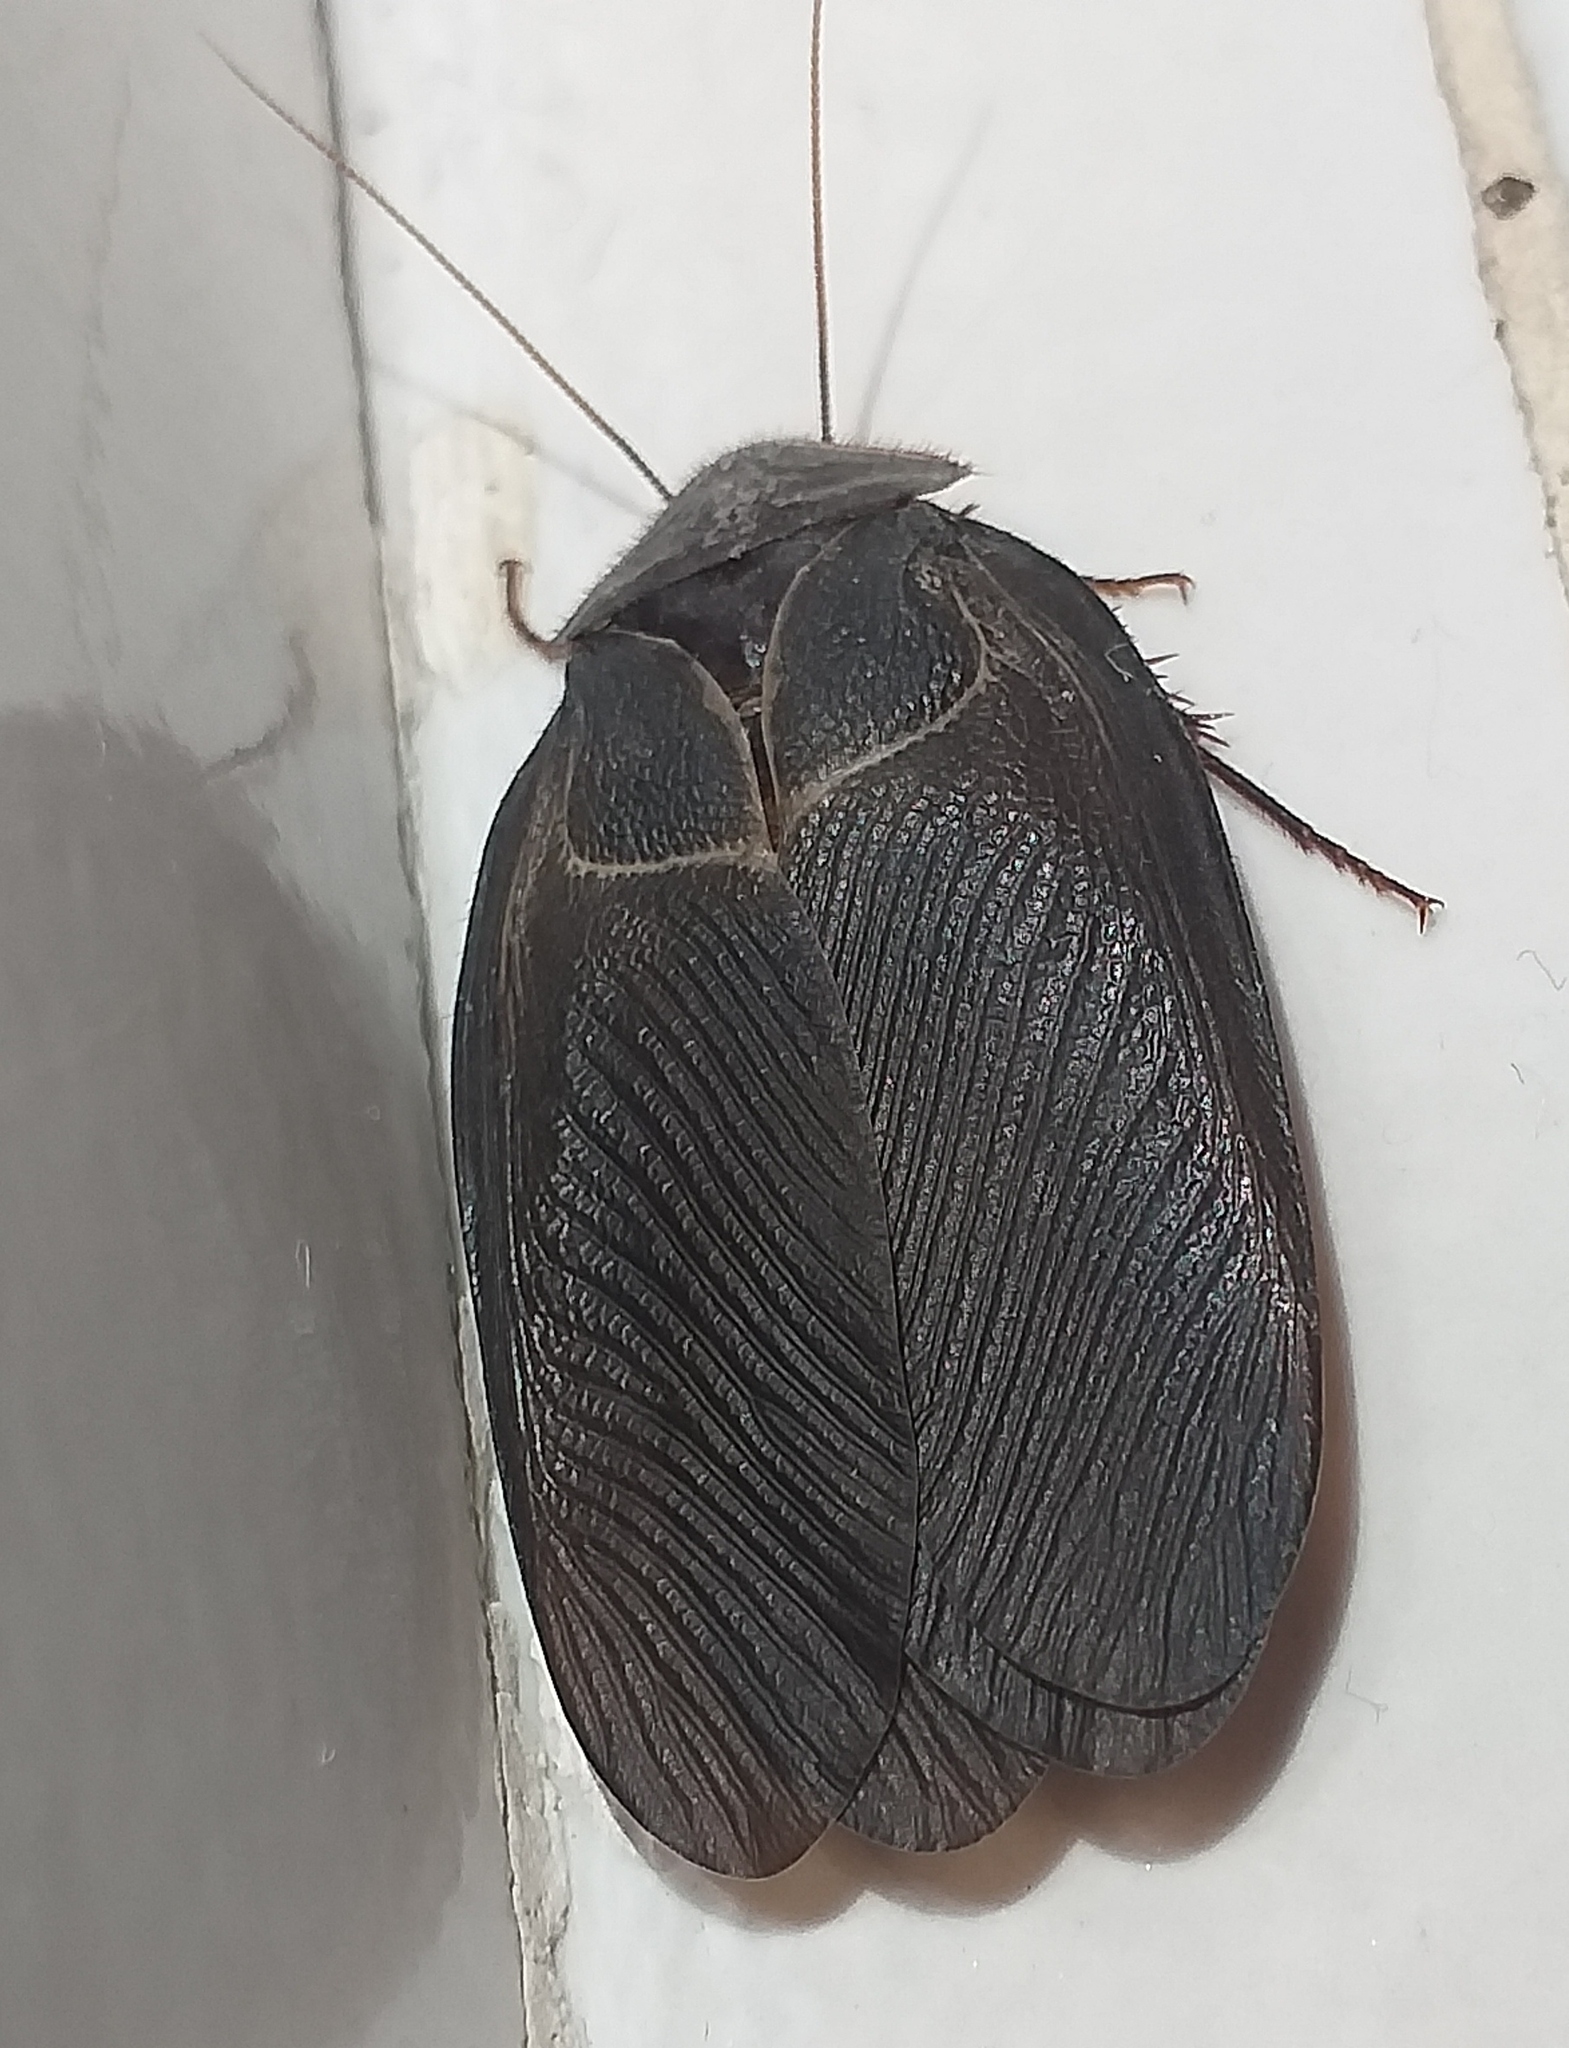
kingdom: Animalia
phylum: Arthropoda
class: Insecta
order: Blattodea
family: Corydiidae
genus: Polyphaga
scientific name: Polyphaga aegyptiaca
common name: Egyptian cockroach
